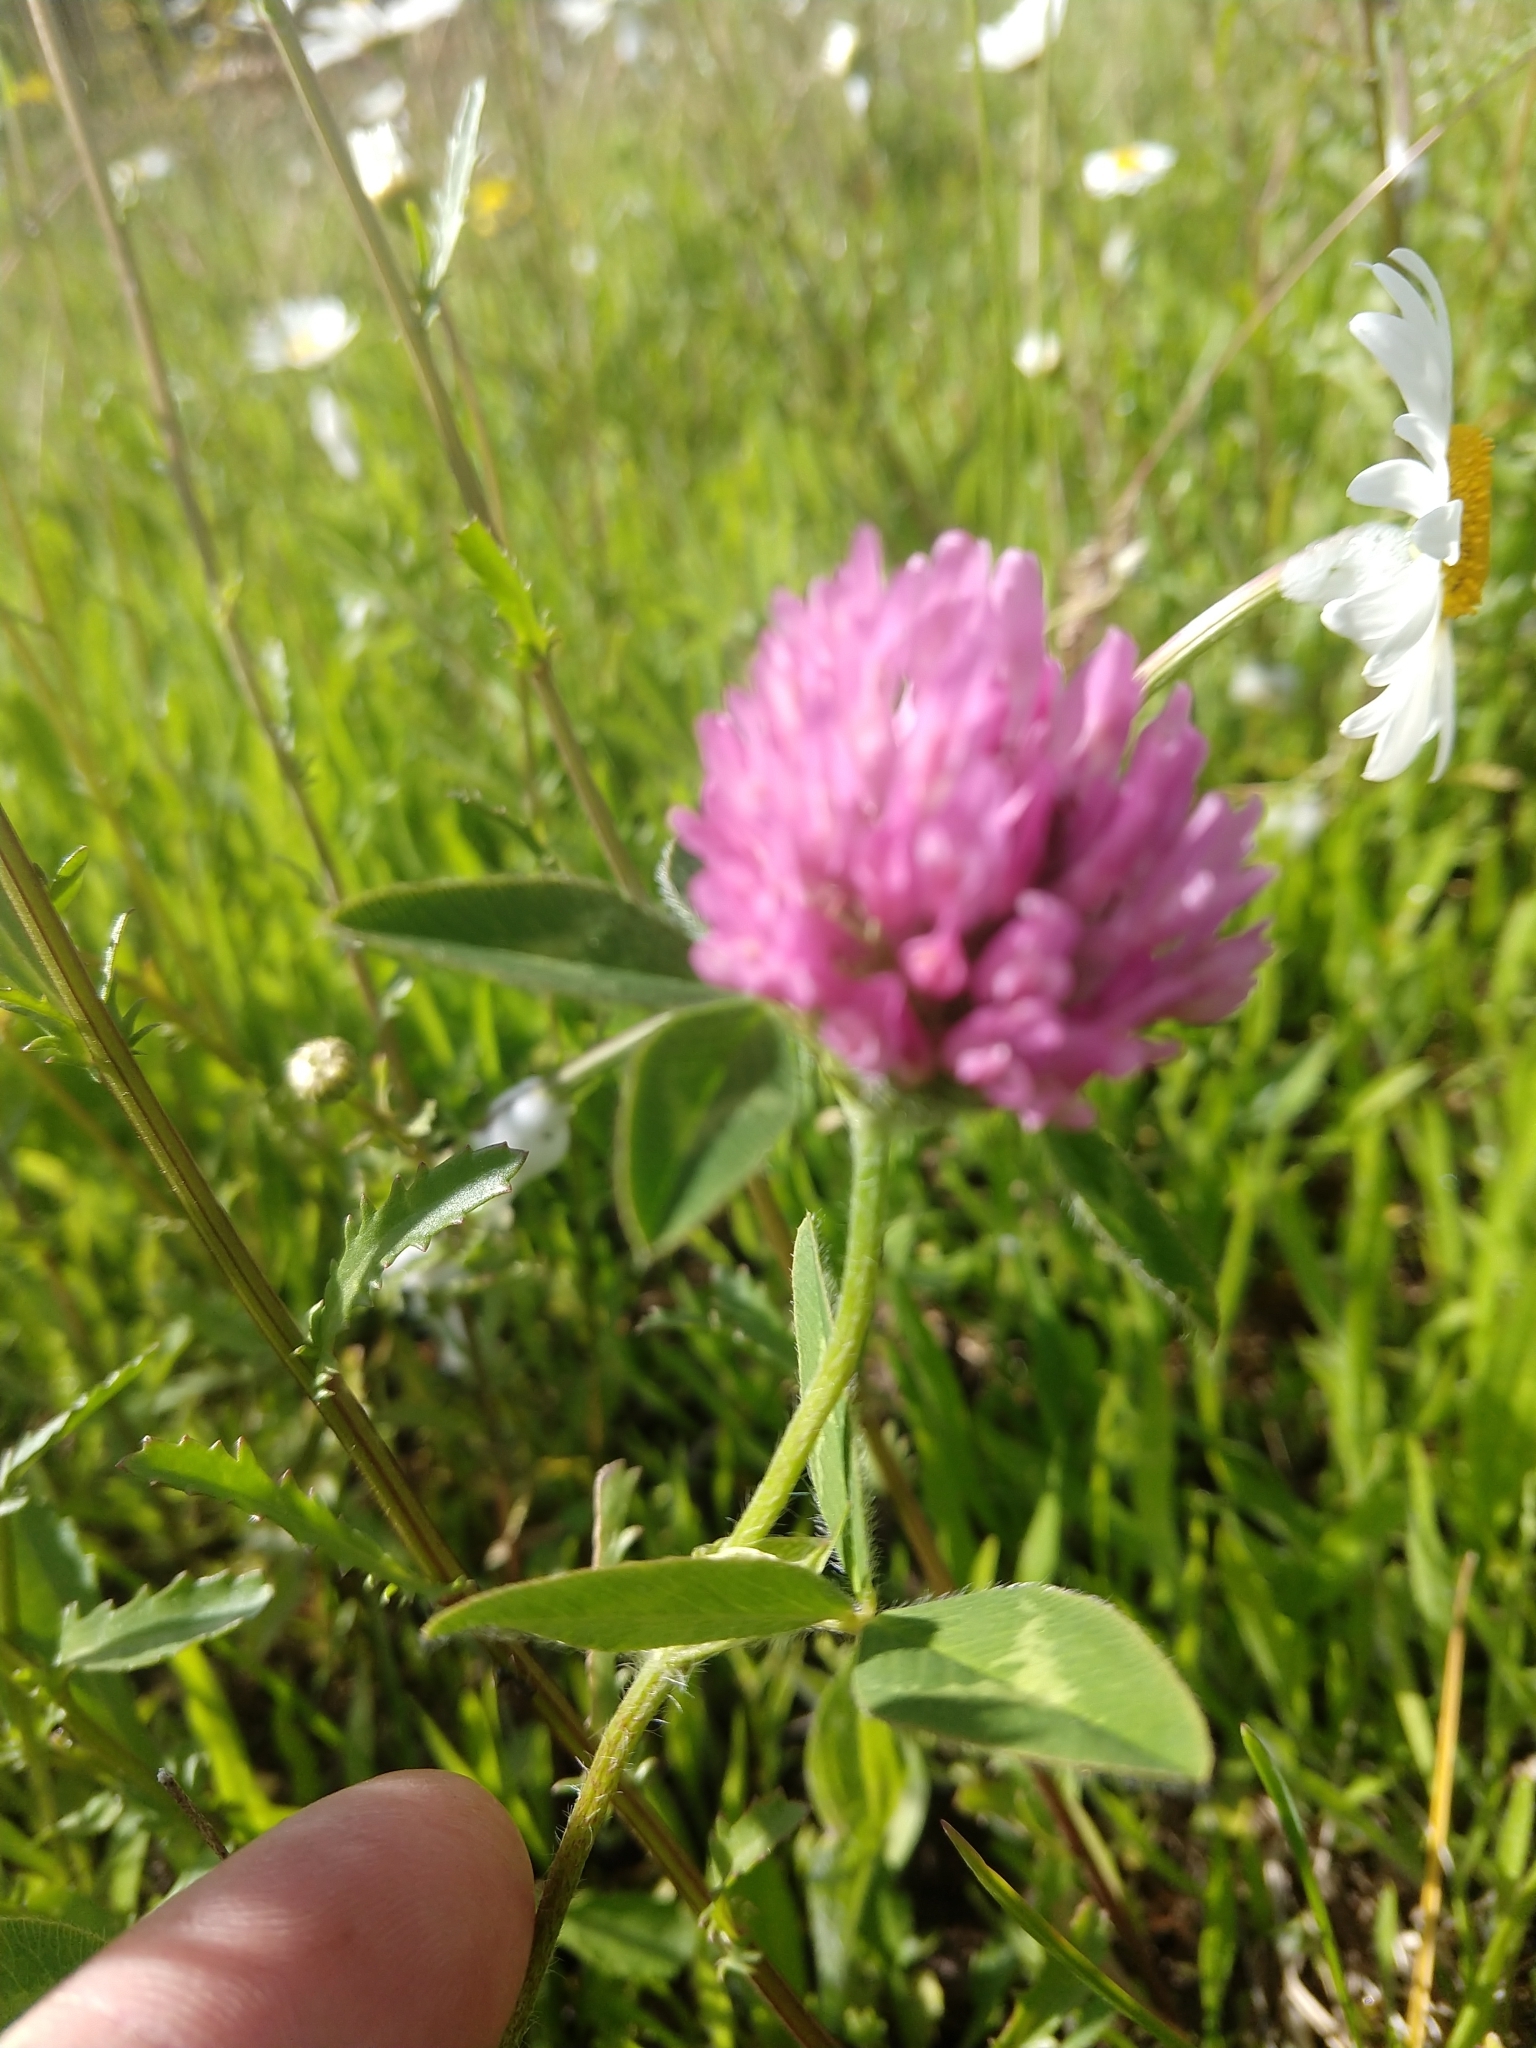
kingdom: Plantae
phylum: Tracheophyta
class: Magnoliopsida
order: Fabales
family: Fabaceae
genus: Trifolium
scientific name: Trifolium pratense
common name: Red clover
